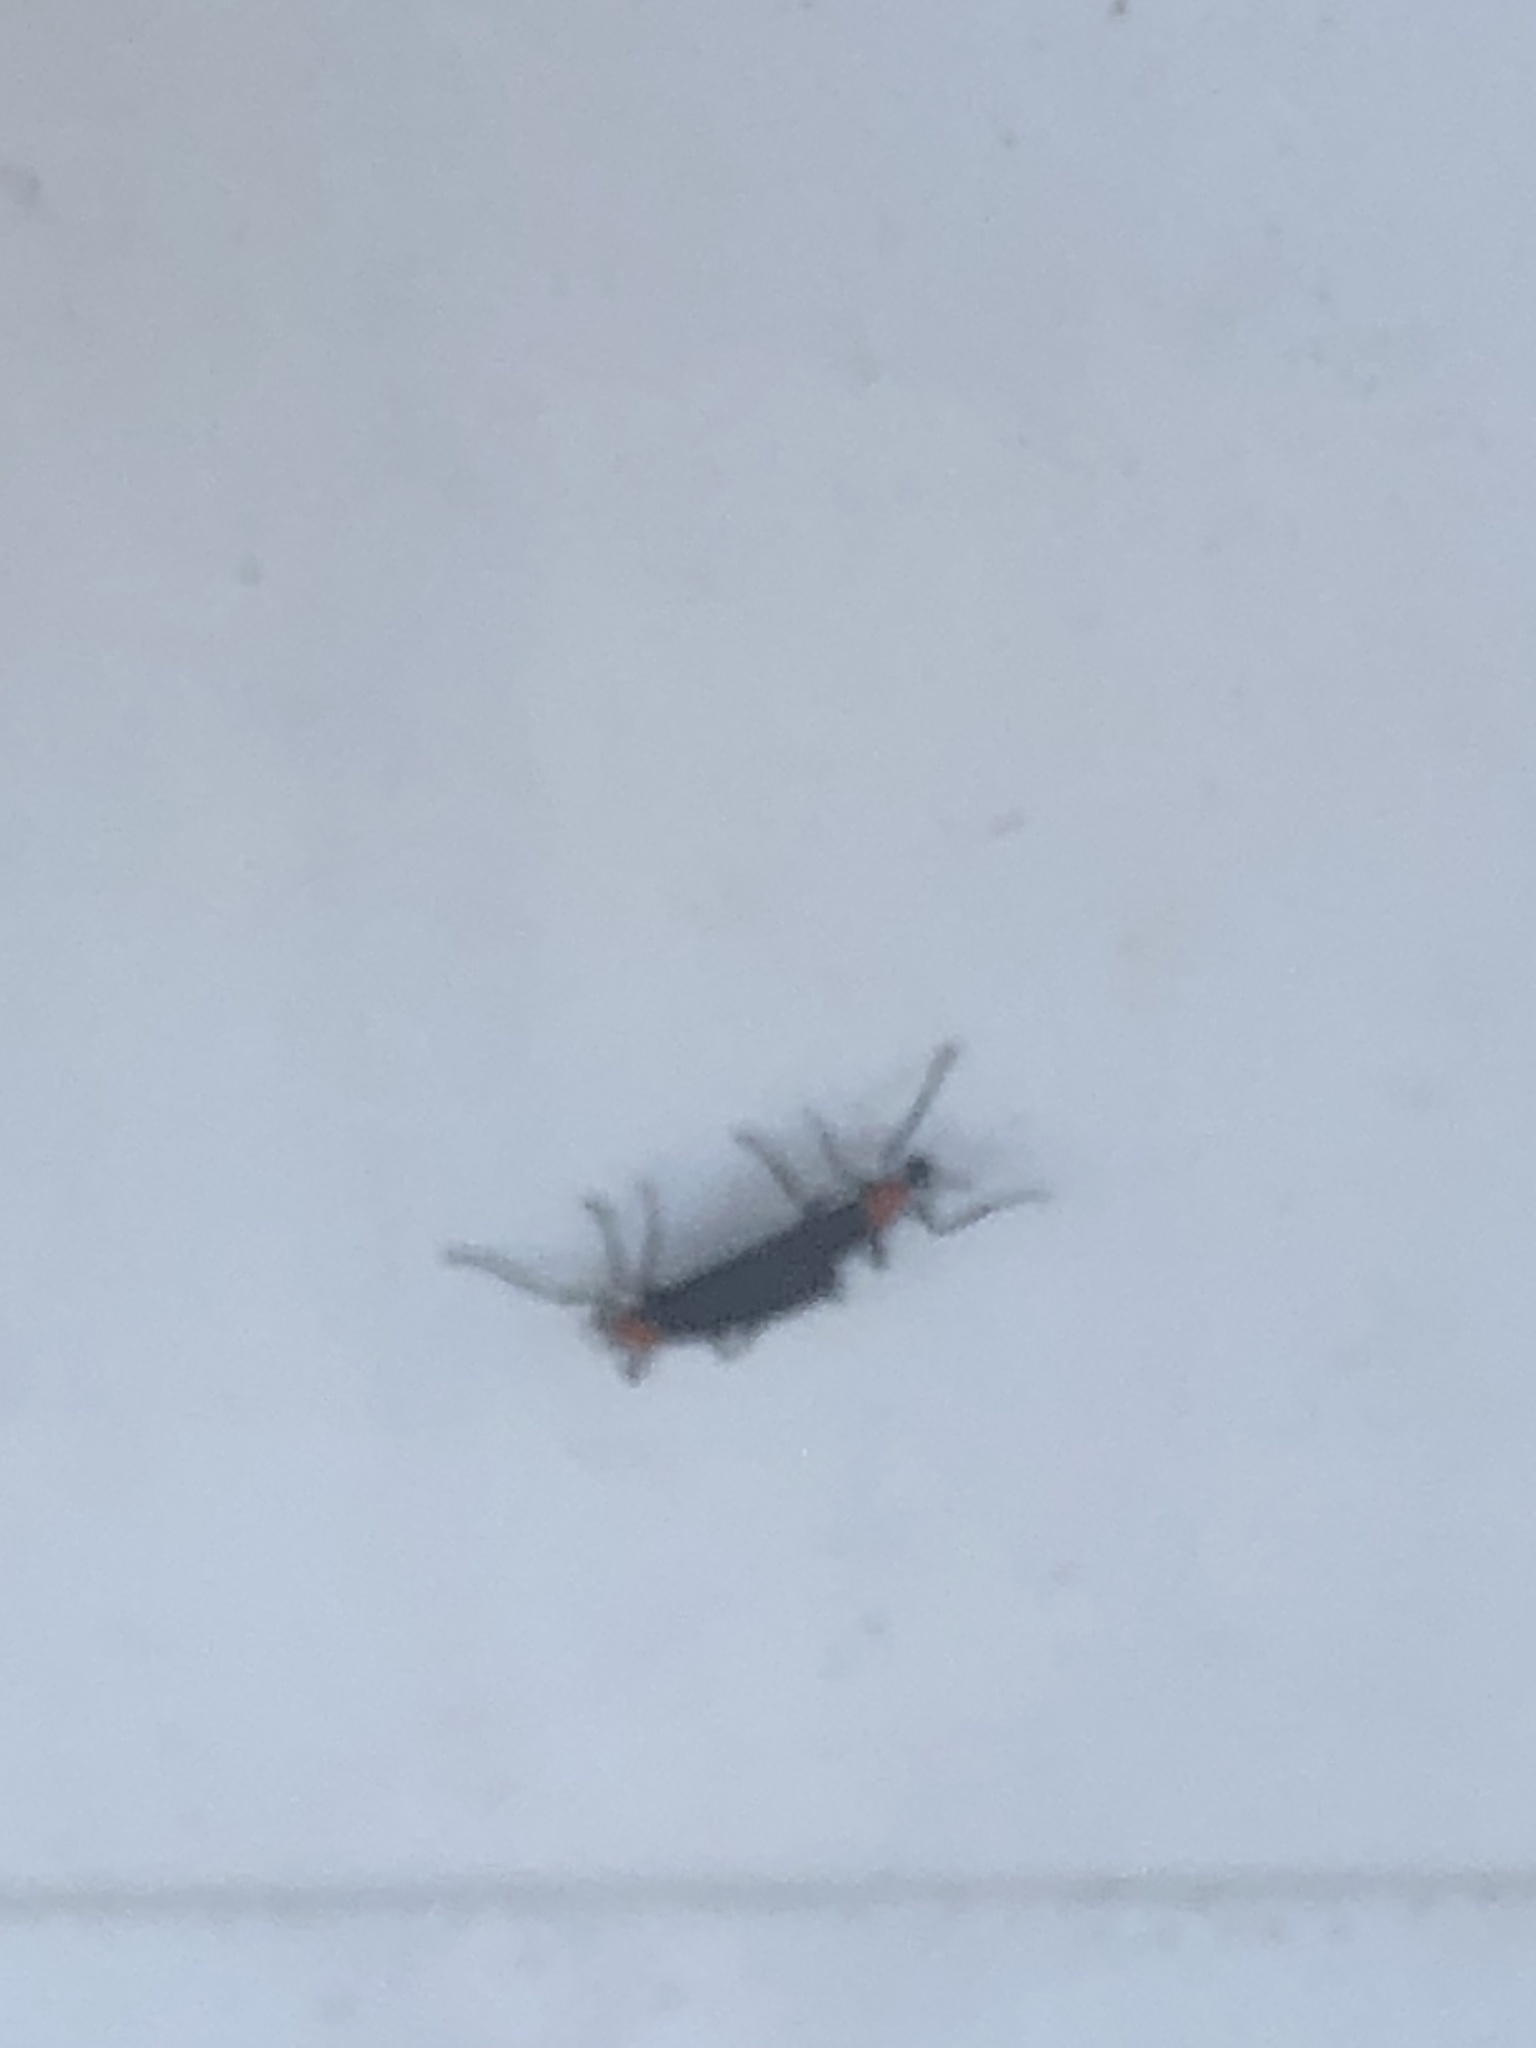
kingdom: Animalia
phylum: Arthropoda
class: Insecta
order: Diptera
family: Bibionidae
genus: Plecia
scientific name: Plecia nearctica
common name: March fly
